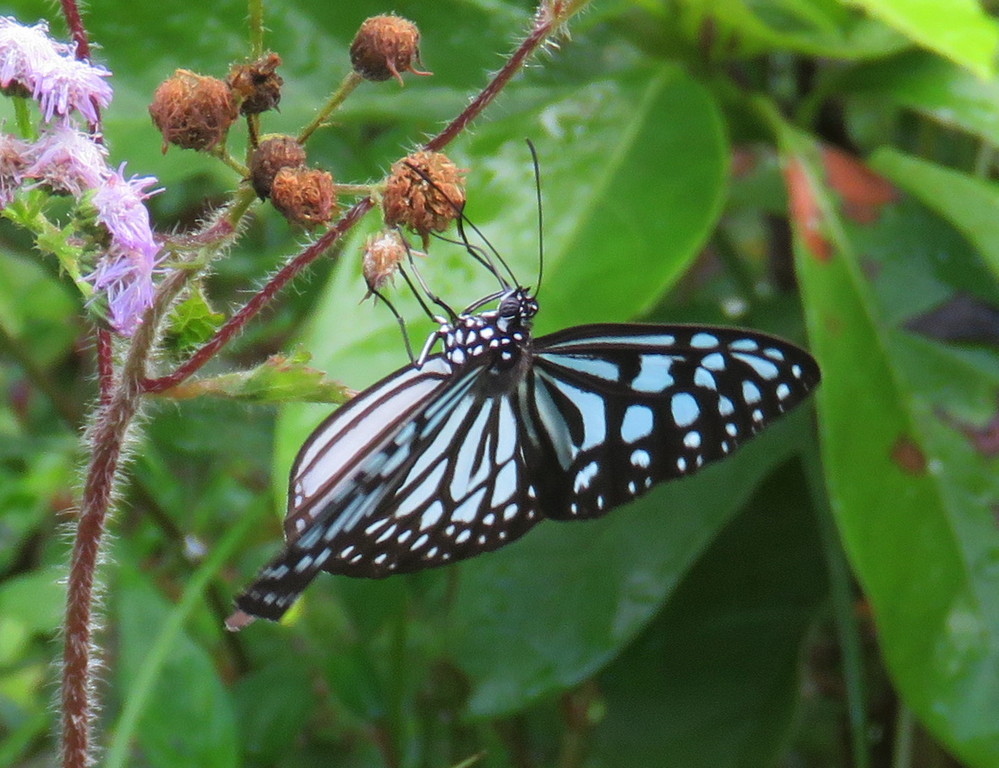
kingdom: Animalia
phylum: Arthropoda
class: Insecta
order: Lepidoptera
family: Nymphalidae
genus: Ideopsis
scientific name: Ideopsis similis
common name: Ceylon blue glassy tiger
